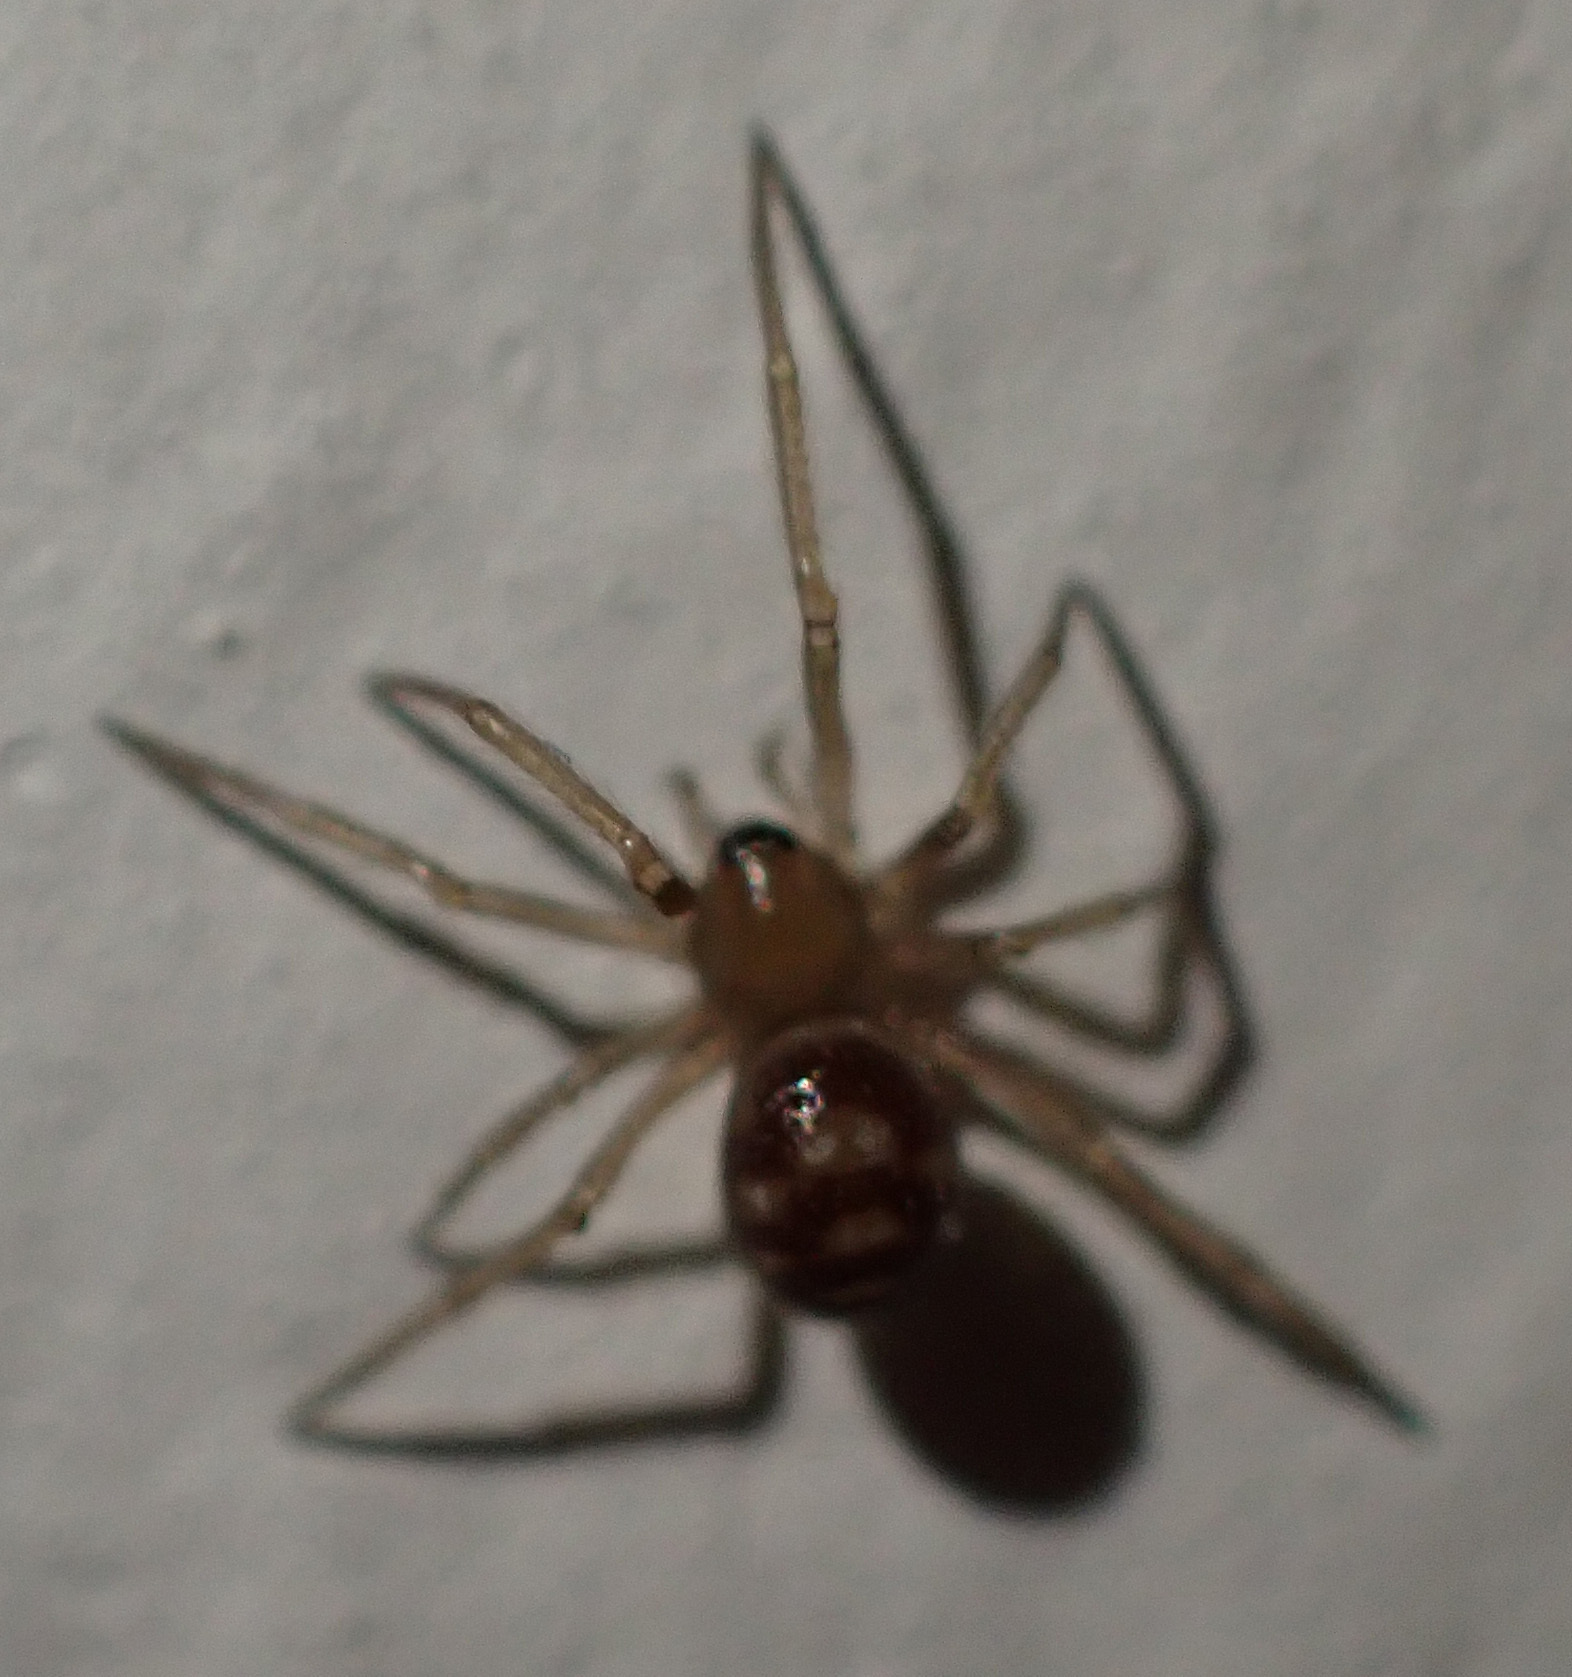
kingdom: Animalia
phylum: Arthropoda
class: Arachnida
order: Araneae
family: Theridiidae
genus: Steatoda
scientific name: Steatoda grossa
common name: False black widow
